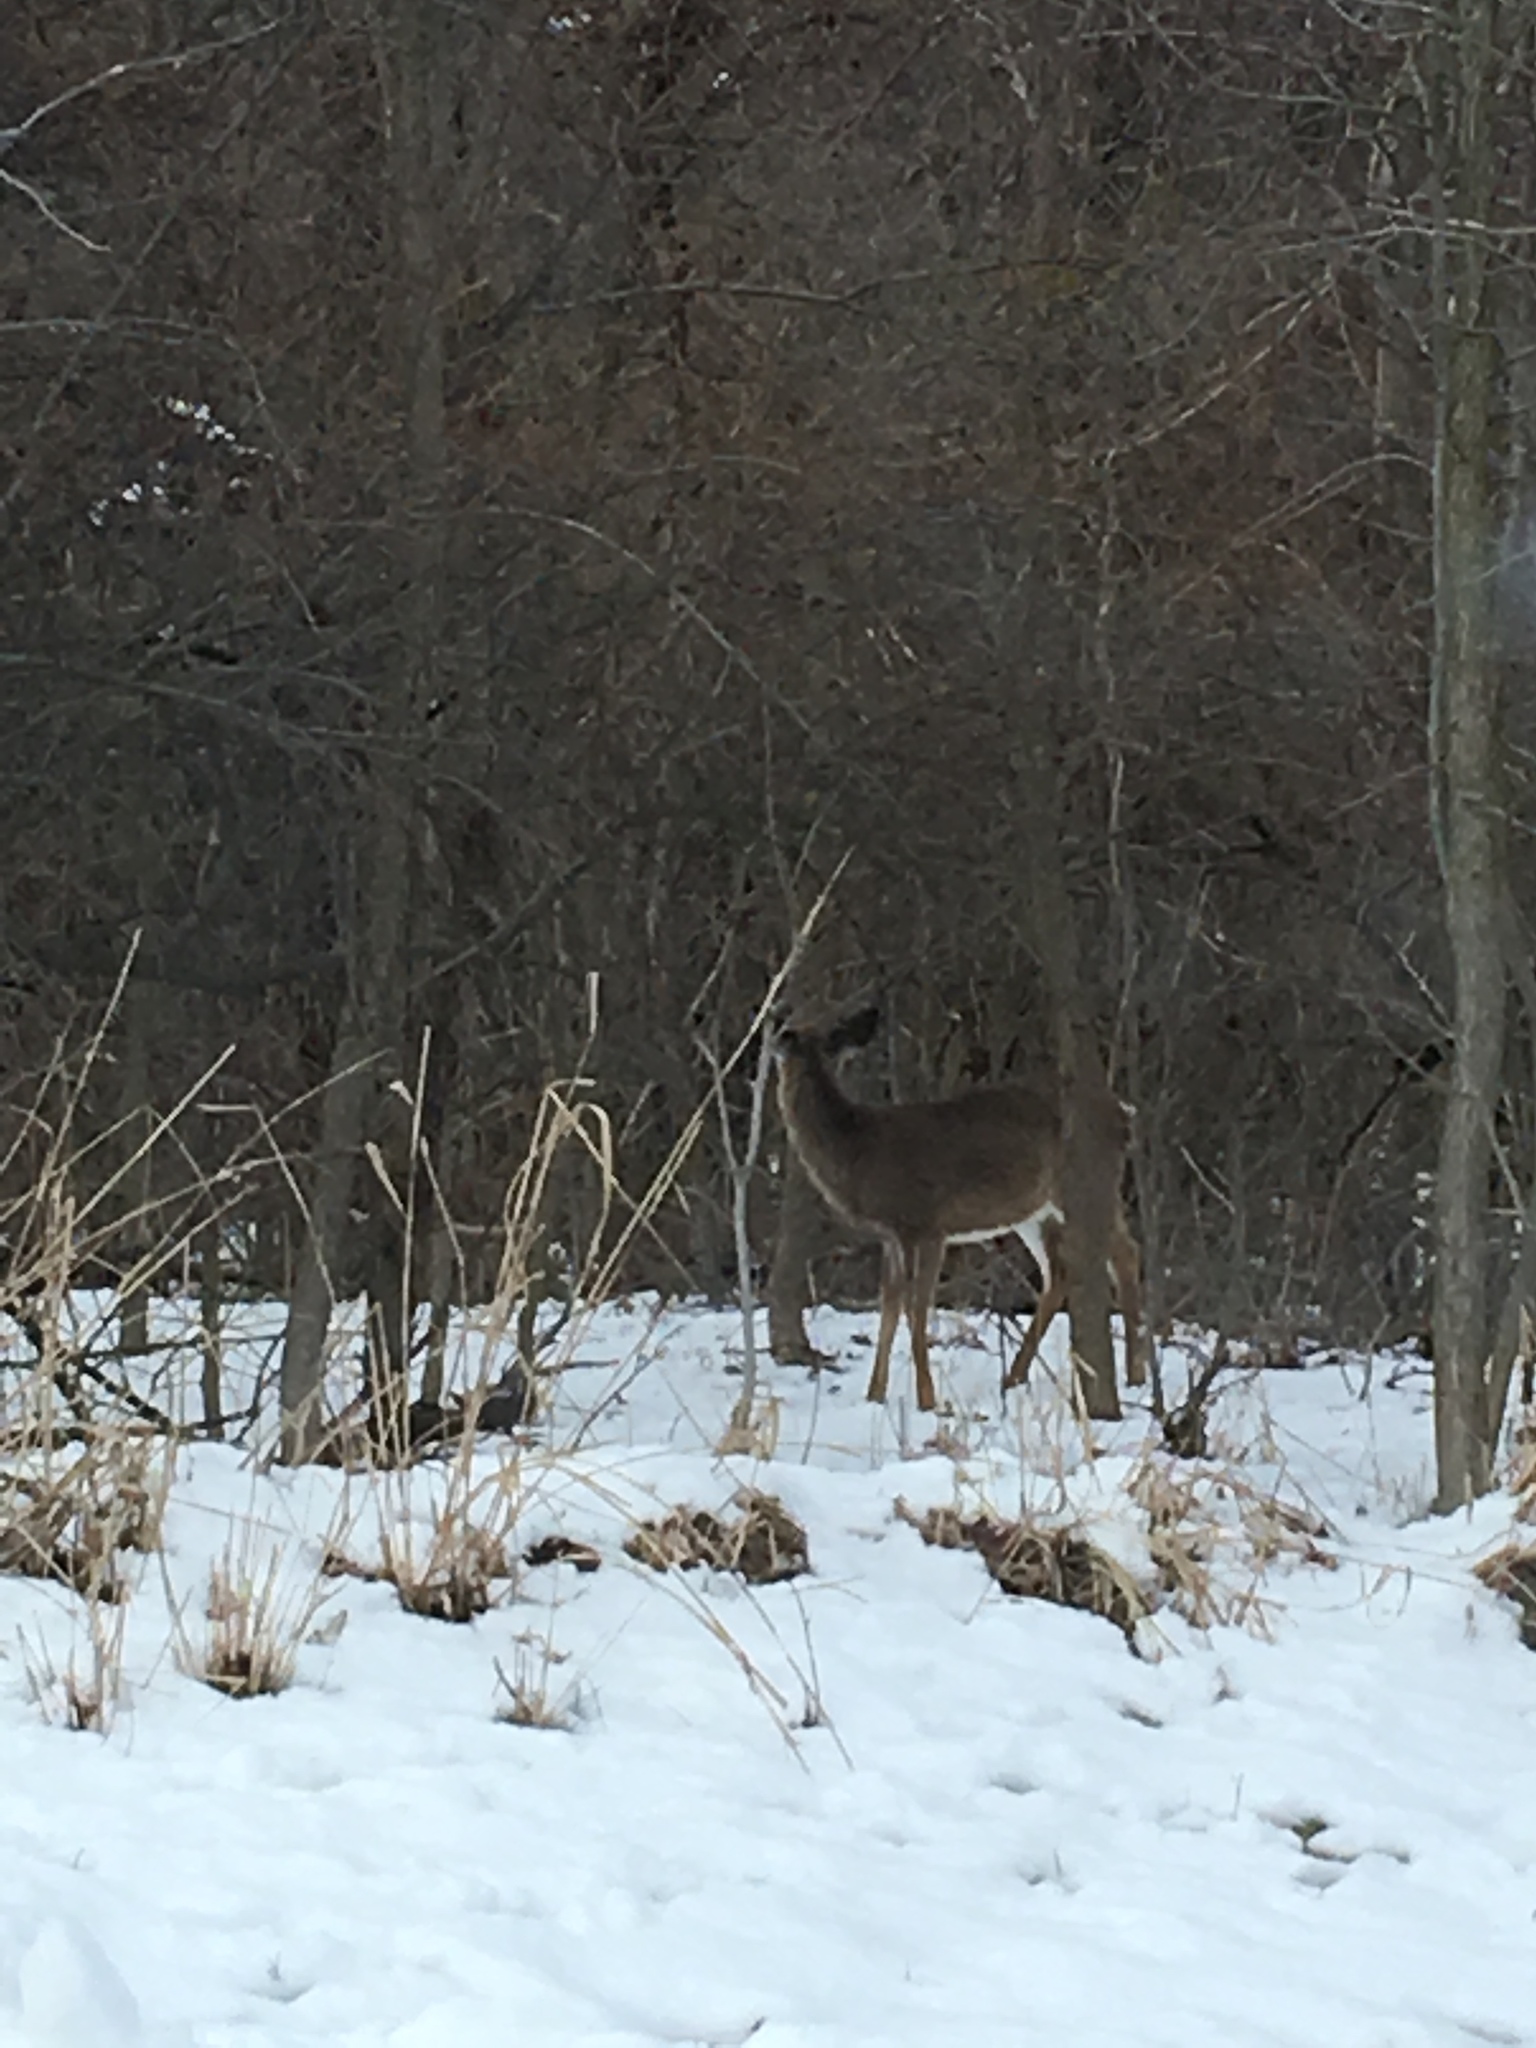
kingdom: Animalia
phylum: Chordata
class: Mammalia
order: Artiodactyla
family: Cervidae
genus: Odocoileus
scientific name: Odocoileus virginianus
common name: White-tailed deer
